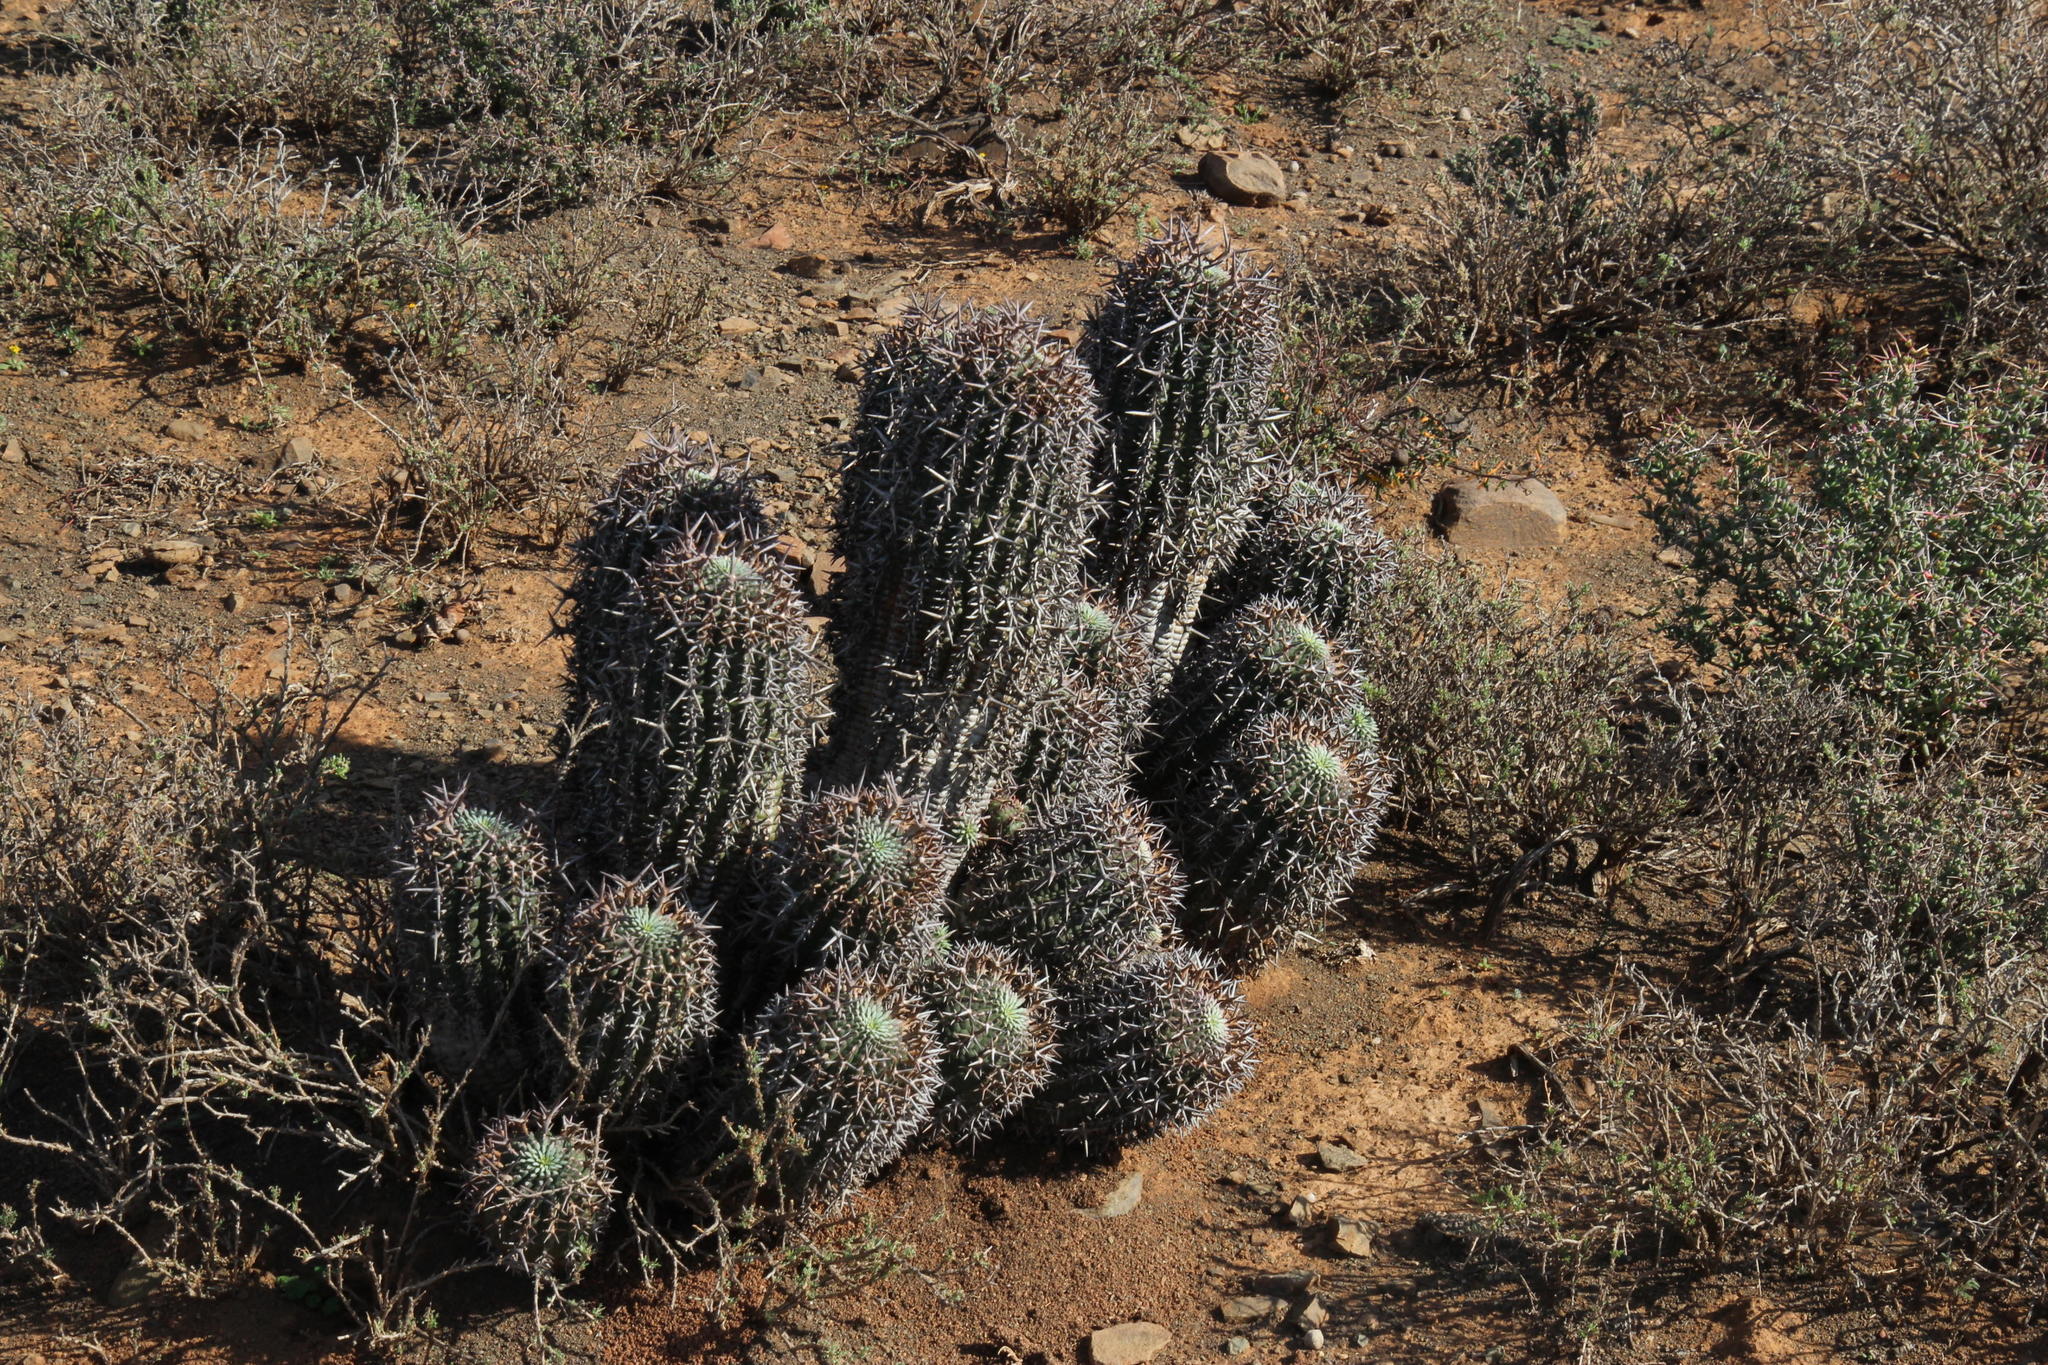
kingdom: Plantae
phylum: Tracheophyta
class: Magnoliopsida
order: Malpighiales
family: Euphorbiaceae
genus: Euphorbia
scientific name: Euphorbia stellispina
